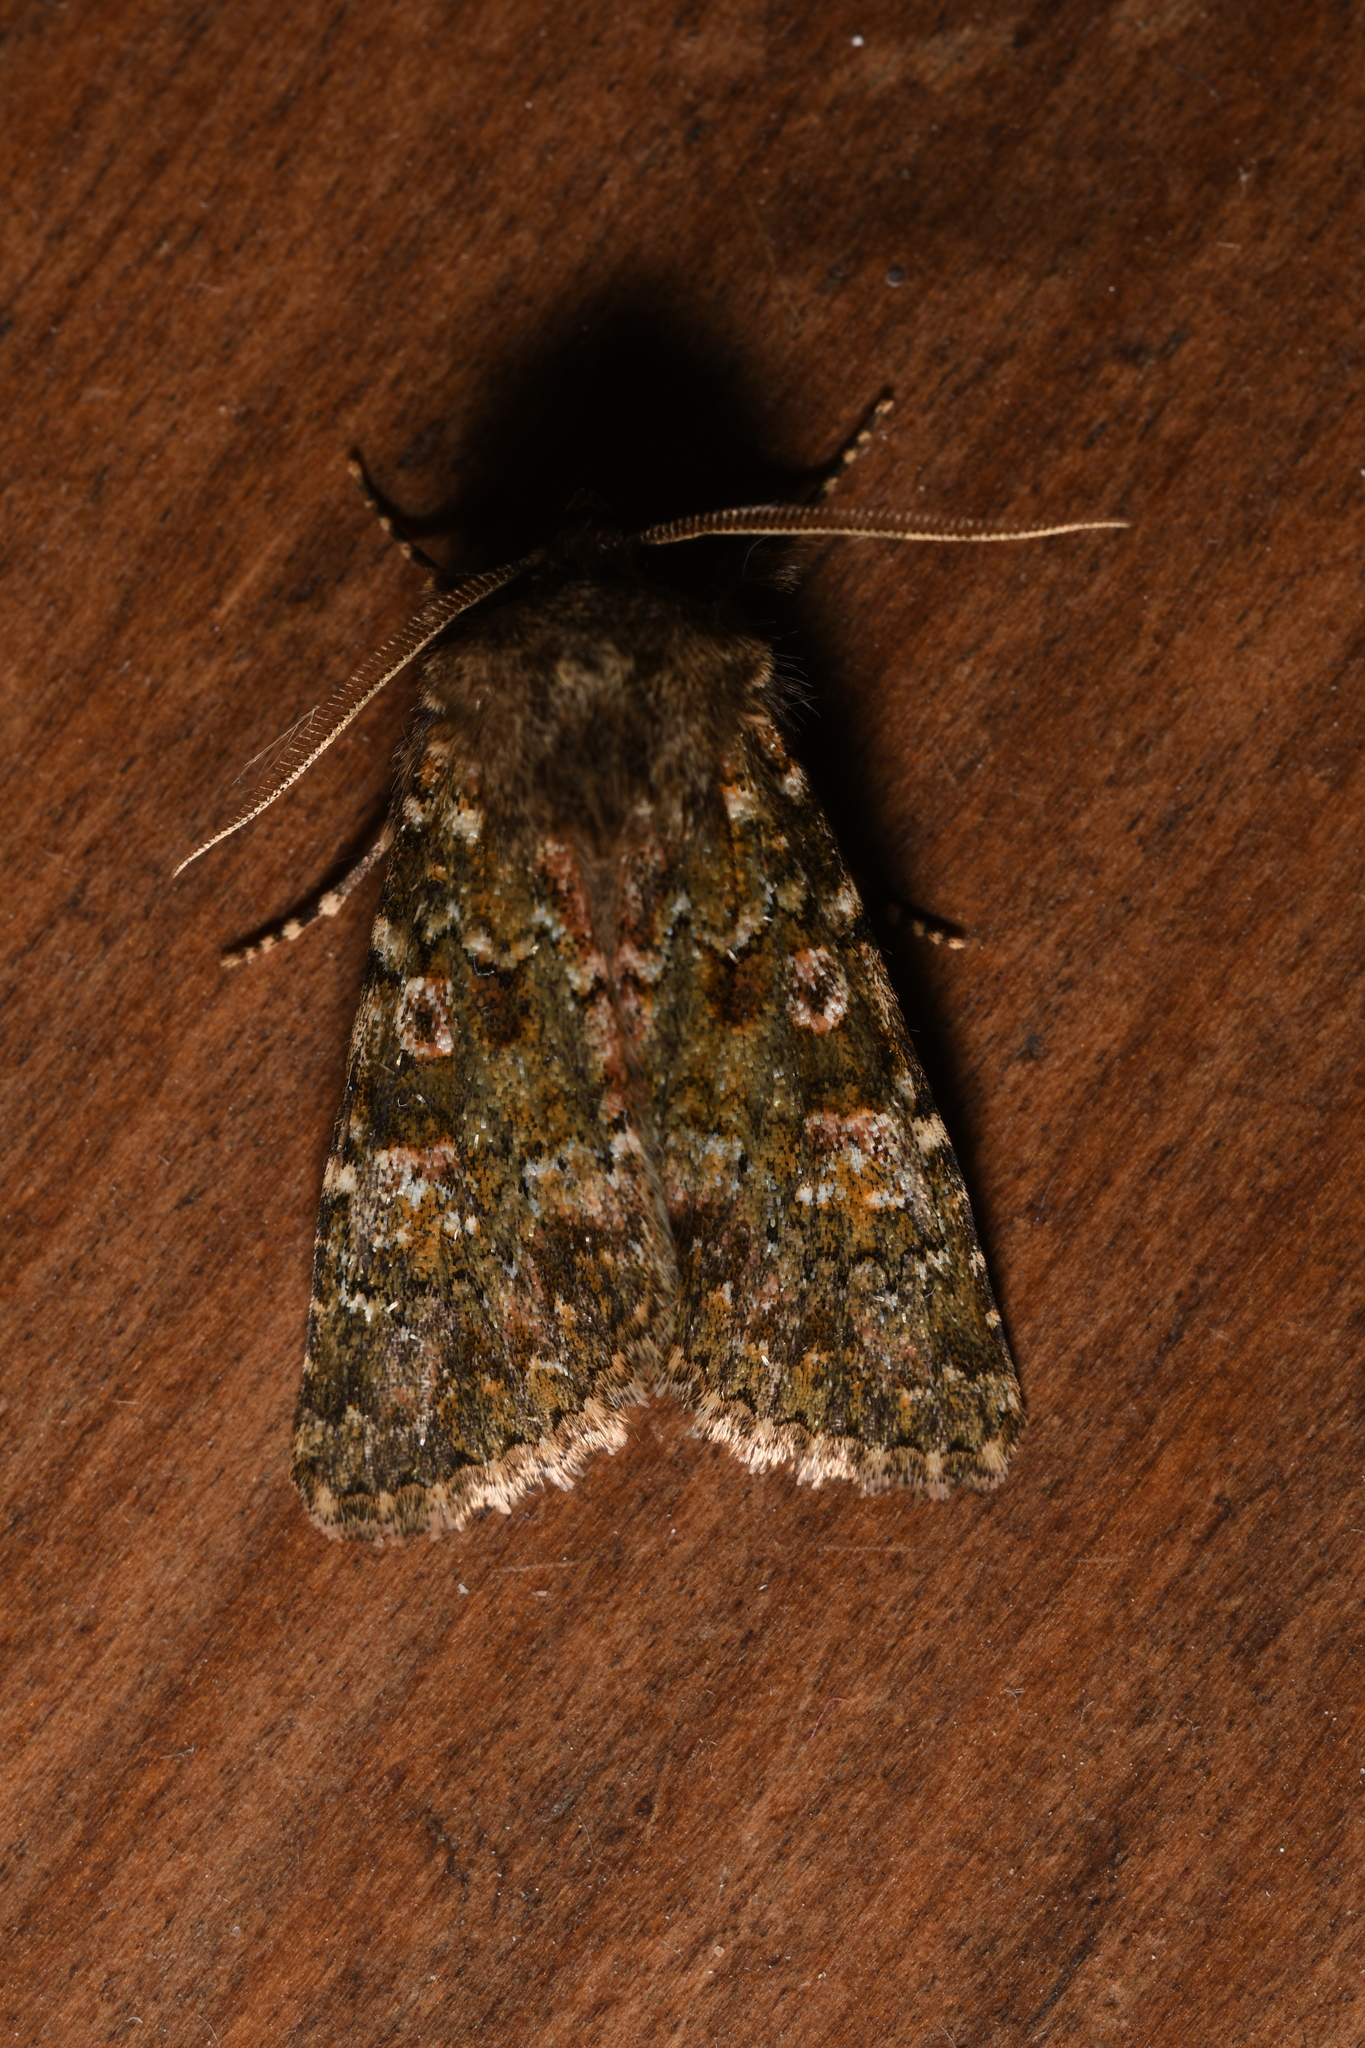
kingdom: Animalia
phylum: Arthropoda
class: Insecta
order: Lepidoptera
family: Noctuidae
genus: Polymixis
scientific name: Polymixis lichenea
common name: Feathered ranunculus
